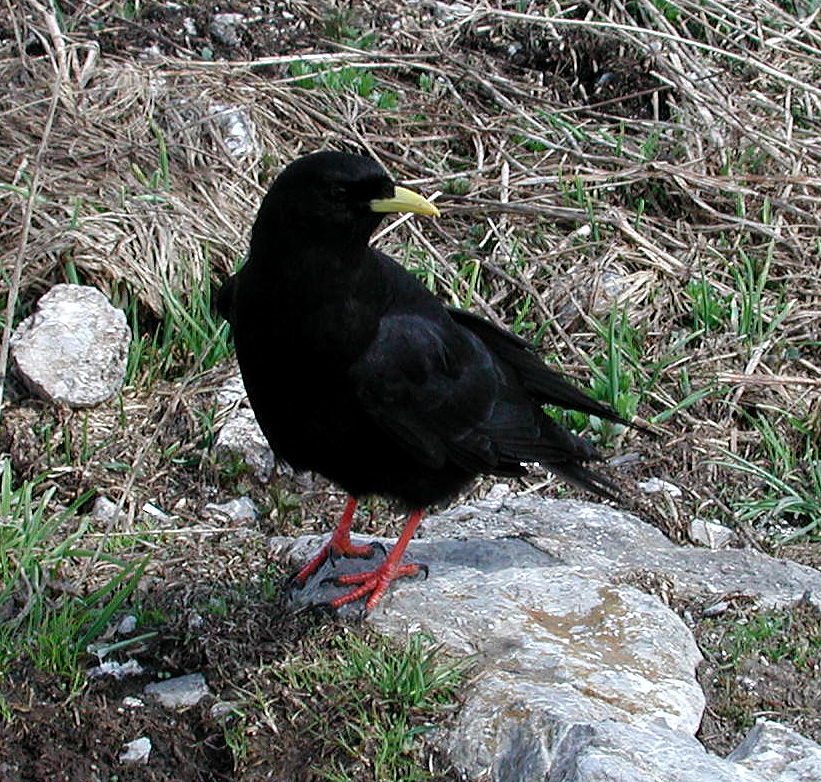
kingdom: Animalia
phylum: Chordata
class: Aves
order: Passeriformes
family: Corvidae
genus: Pyrrhocorax
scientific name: Pyrrhocorax graculus
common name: Alpine chough
